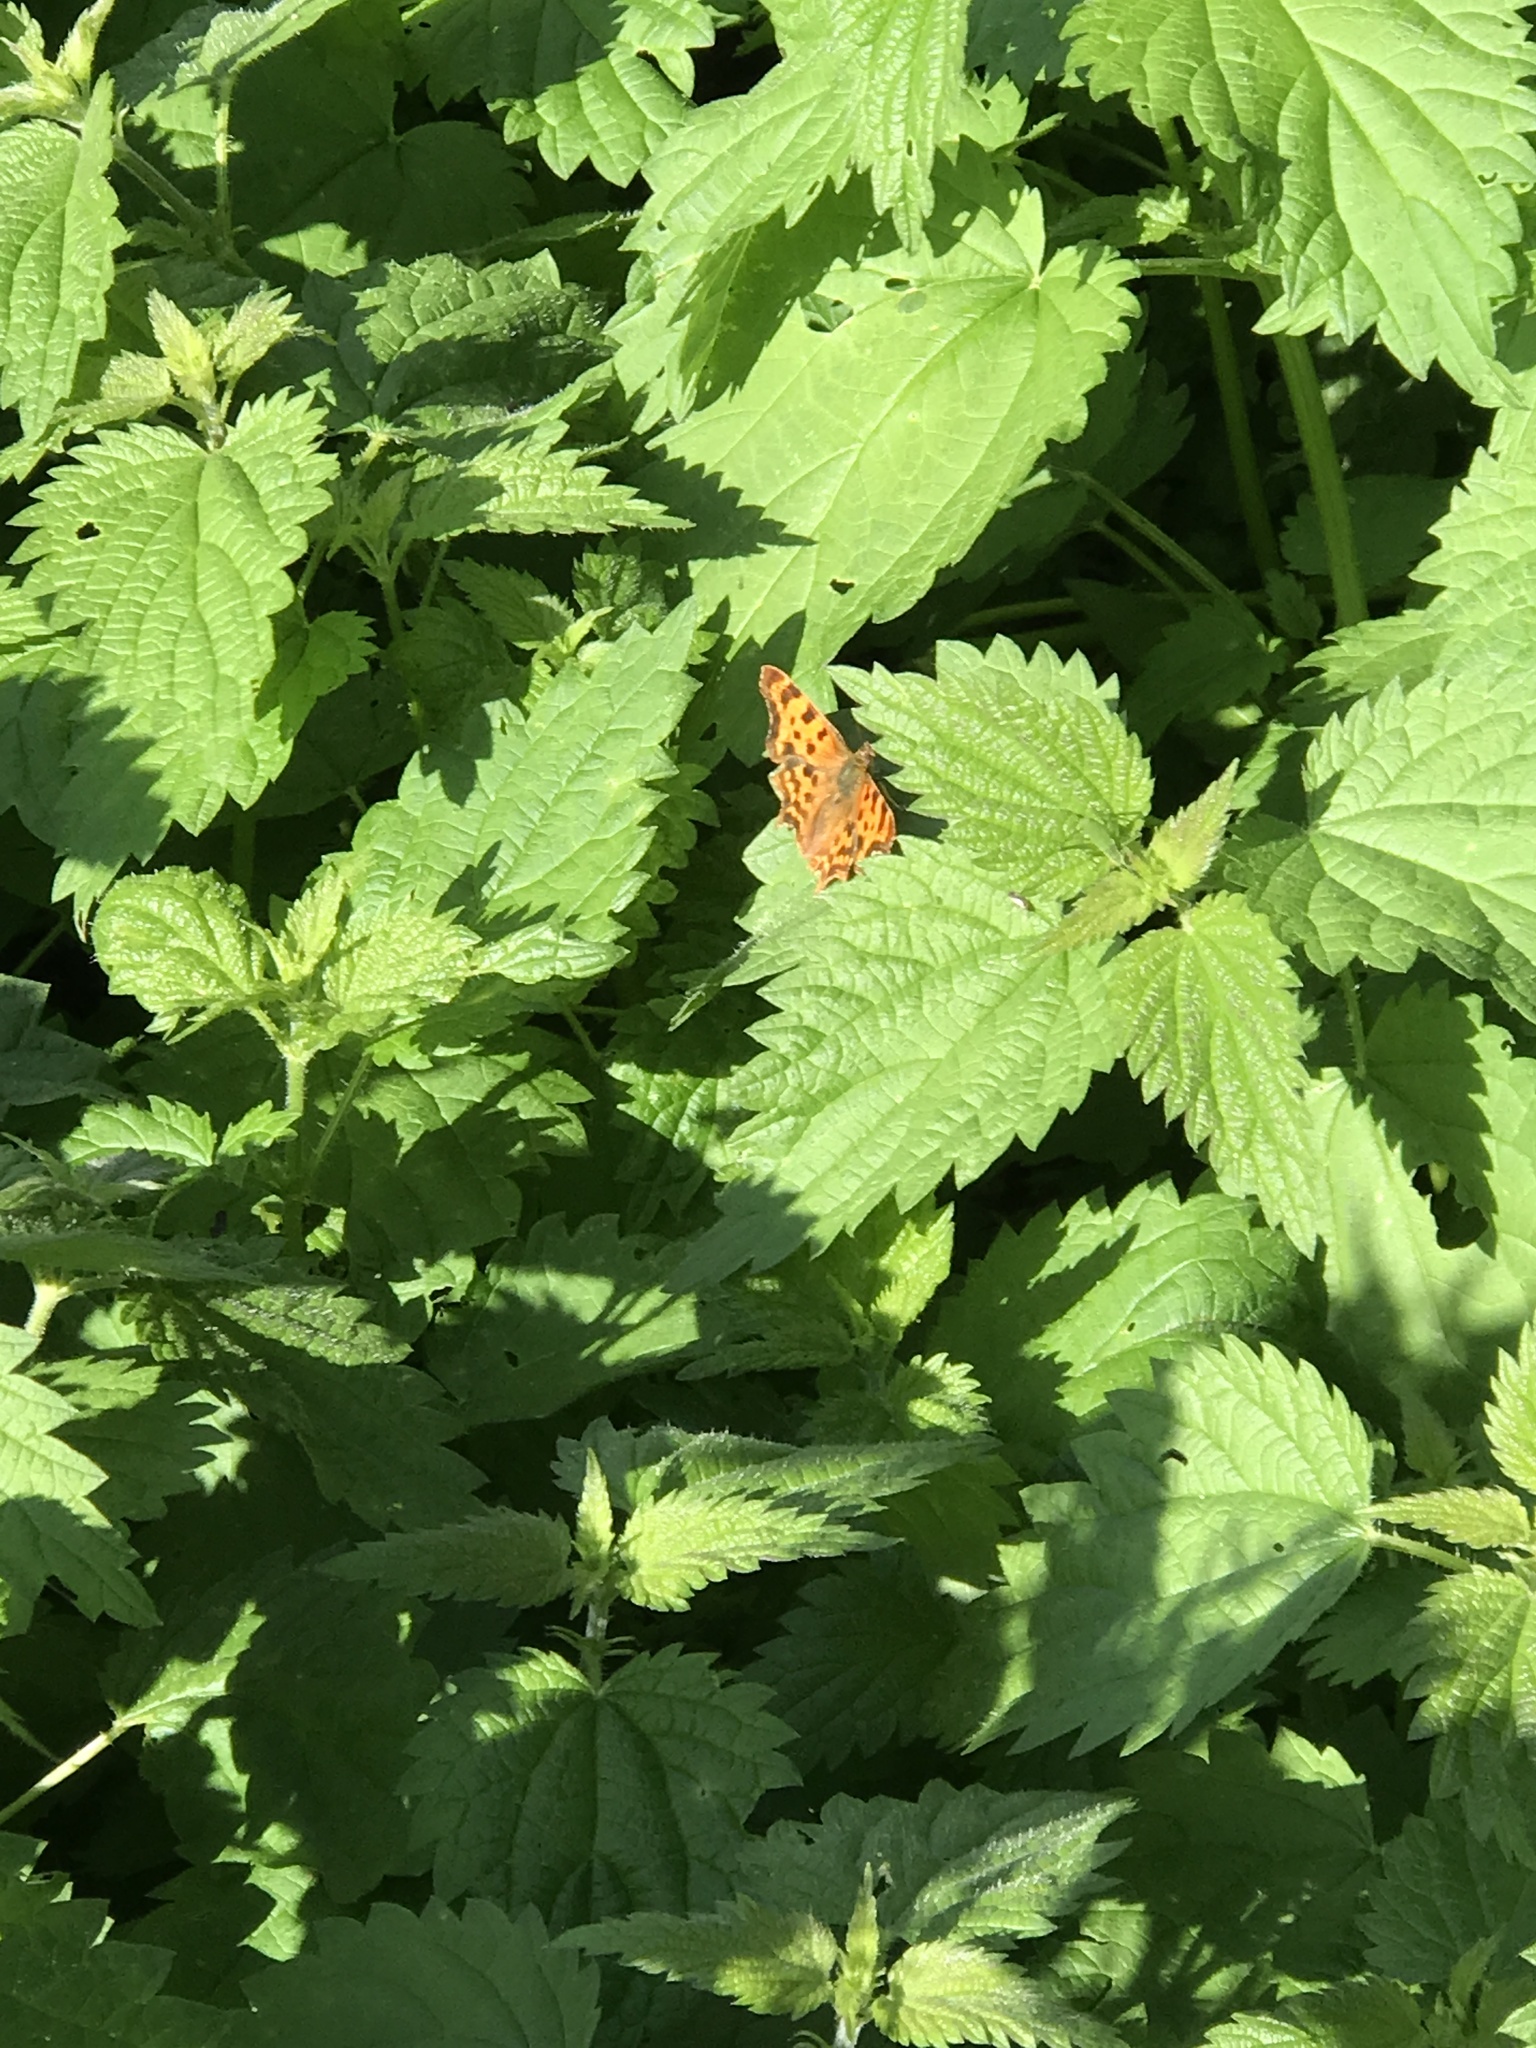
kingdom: Animalia
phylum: Arthropoda
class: Insecta
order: Lepidoptera
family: Nymphalidae
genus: Polygonia
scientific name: Polygonia c-album
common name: Comma
